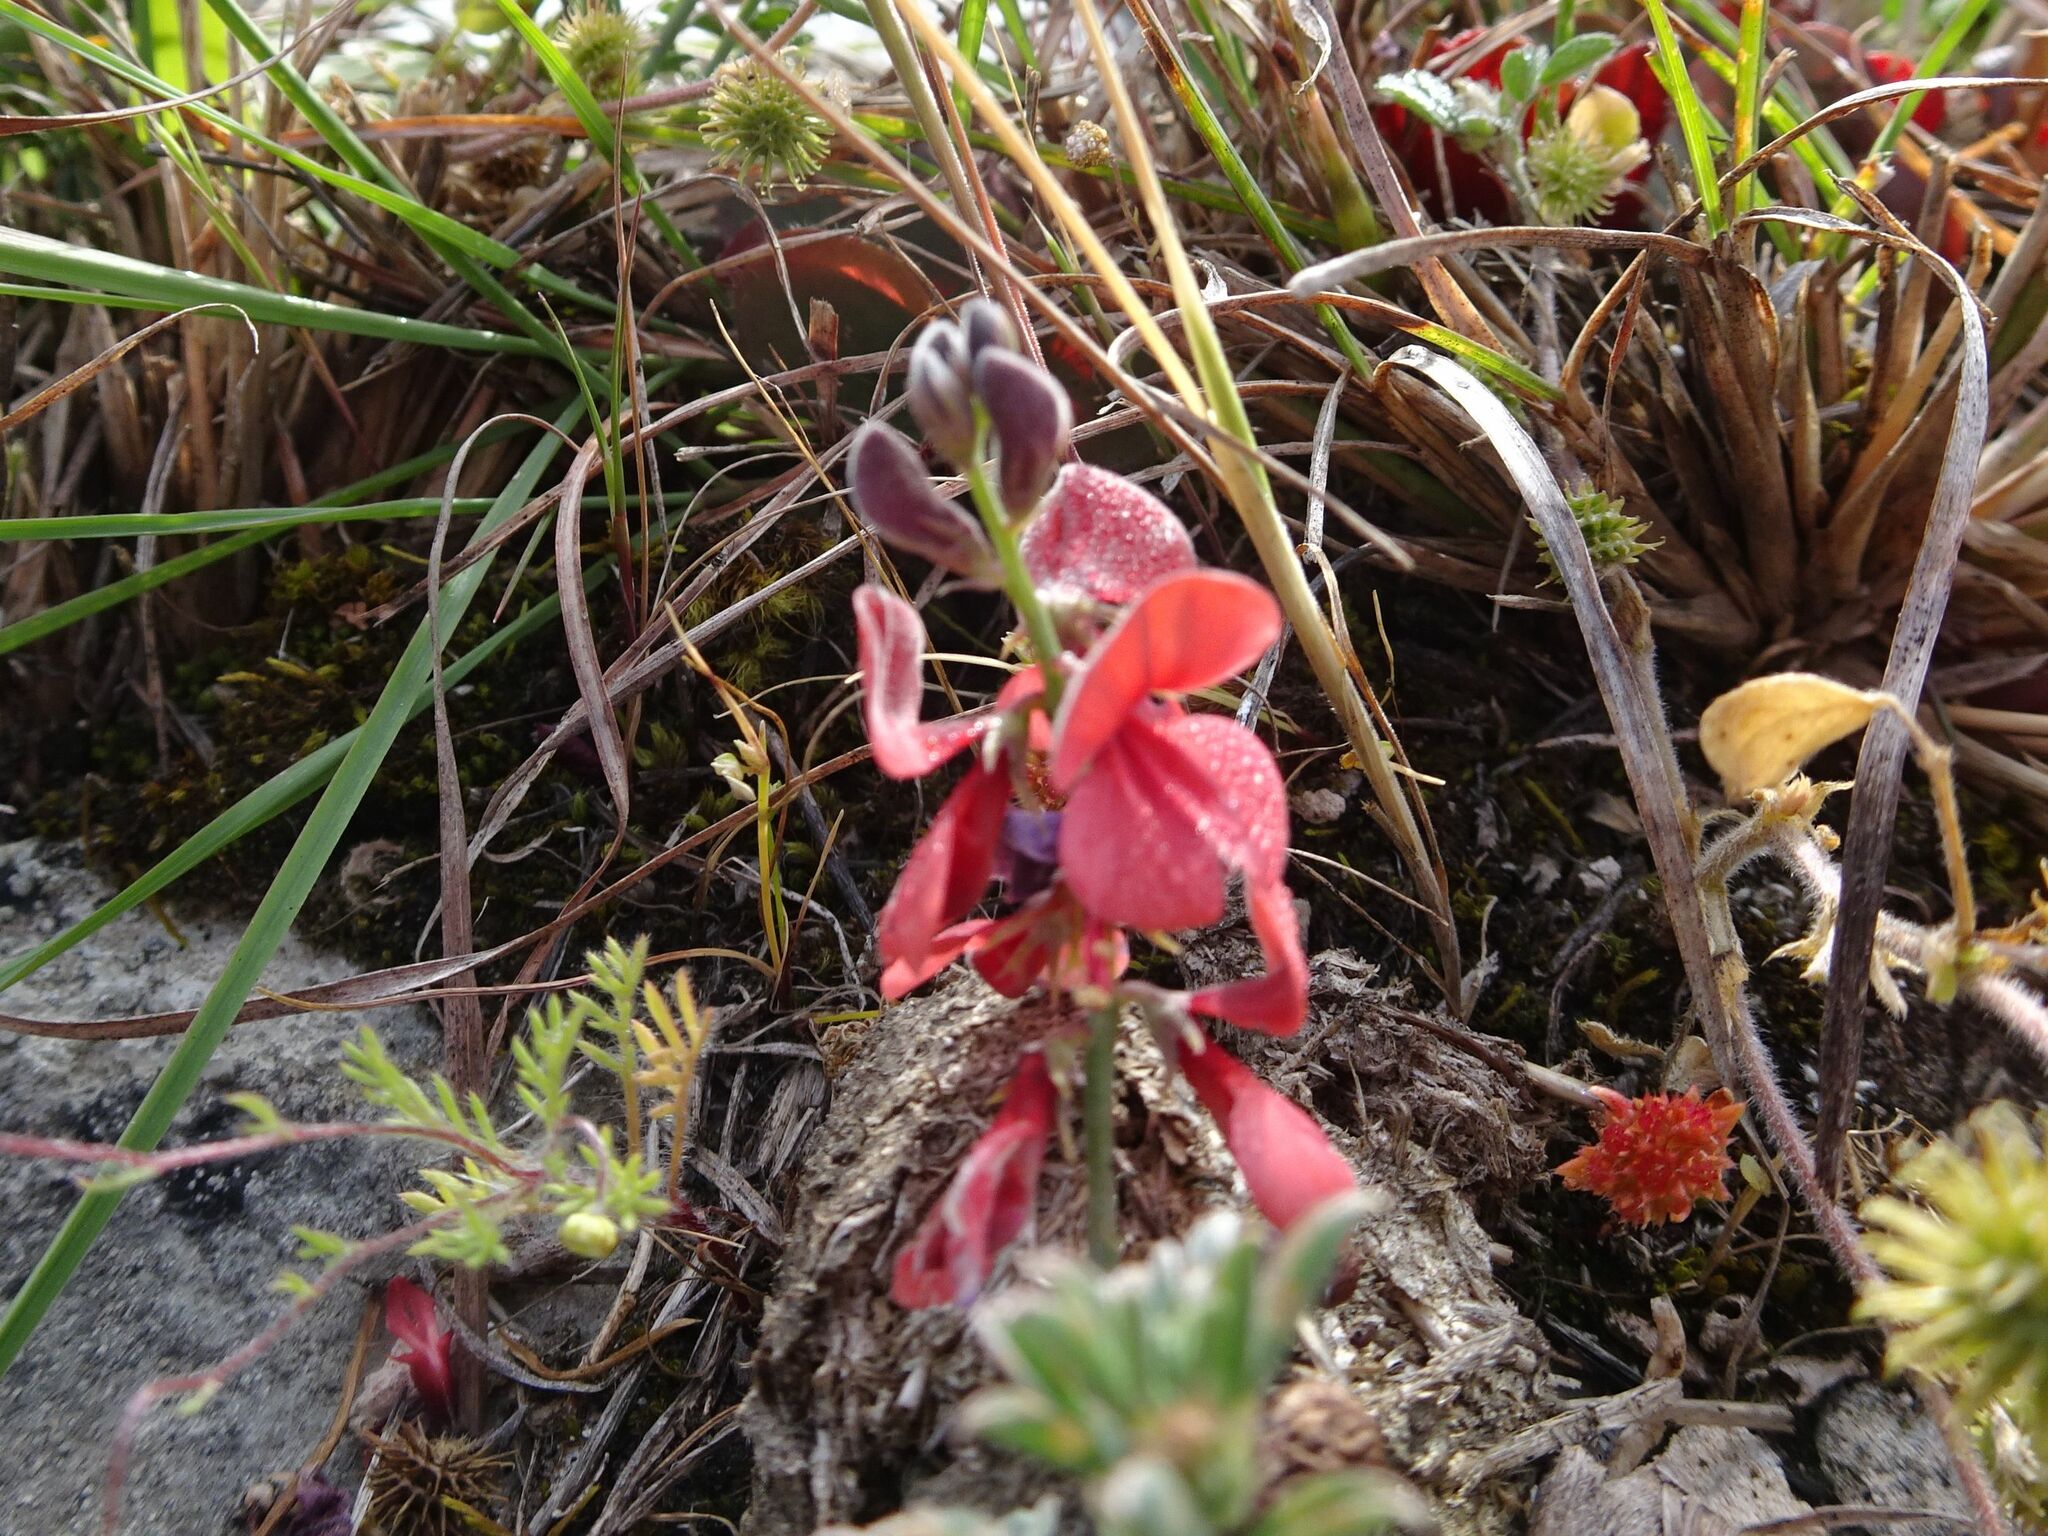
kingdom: Plantae
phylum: Tracheophyta
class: Magnoliopsida
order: Fabales
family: Fabaceae
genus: Indigofera
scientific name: Indigofera heterophylla
